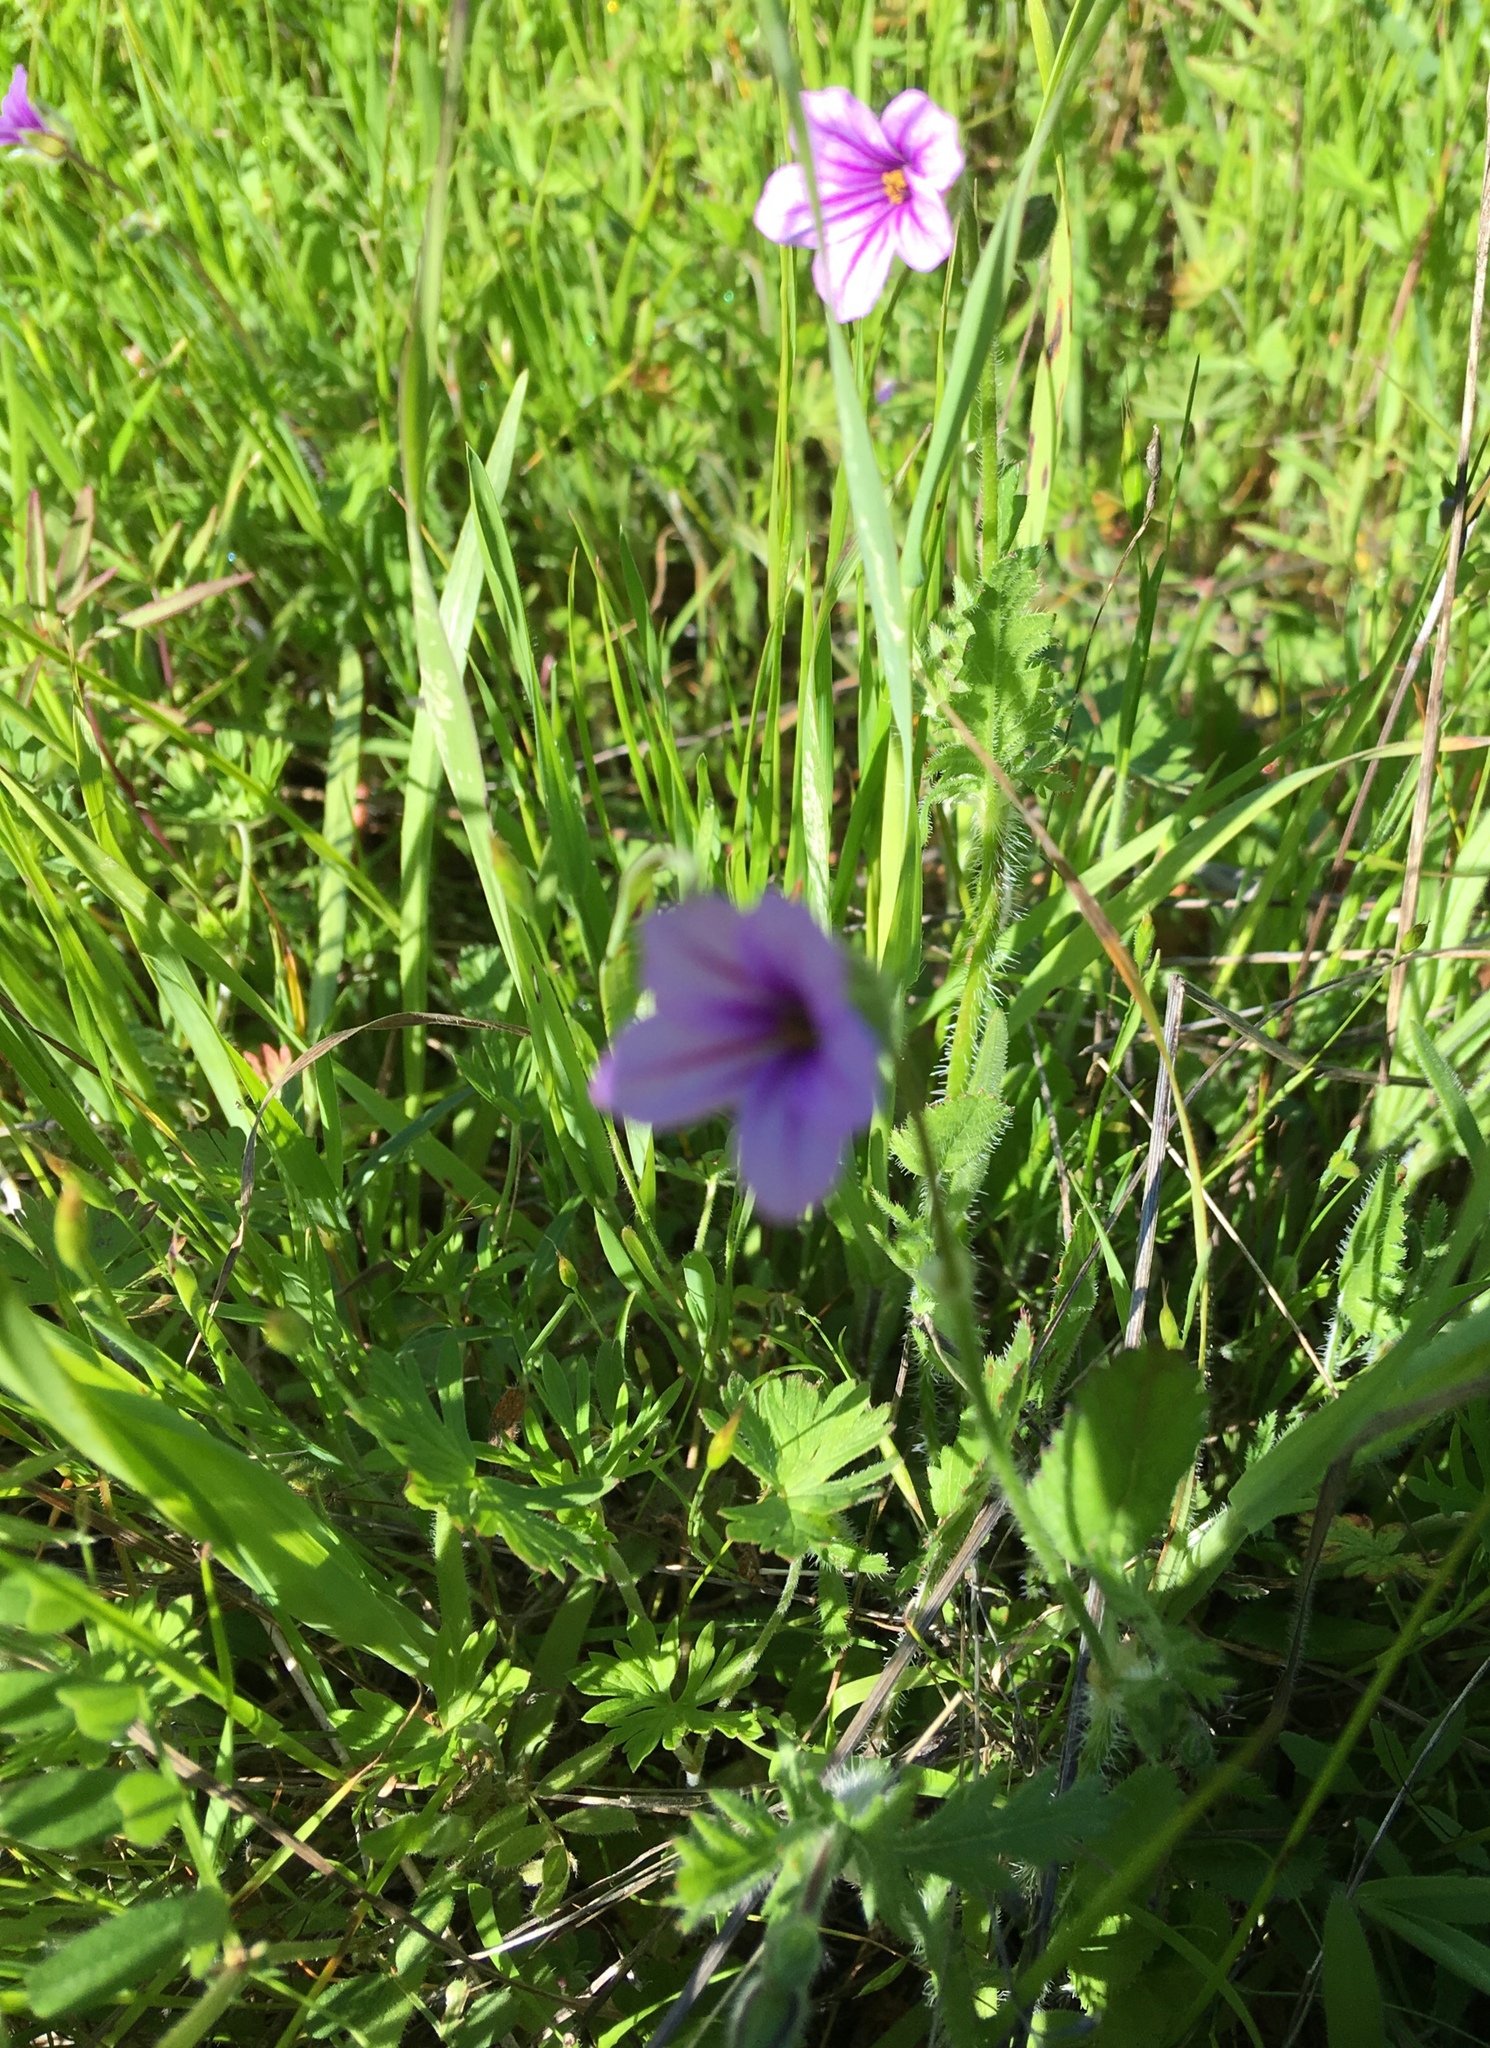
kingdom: Plantae
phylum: Tracheophyta
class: Magnoliopsida
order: Geraniales
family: Geraniaceae
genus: Erodium
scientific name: Erodium botrys
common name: Mediterranean stork's-bill
